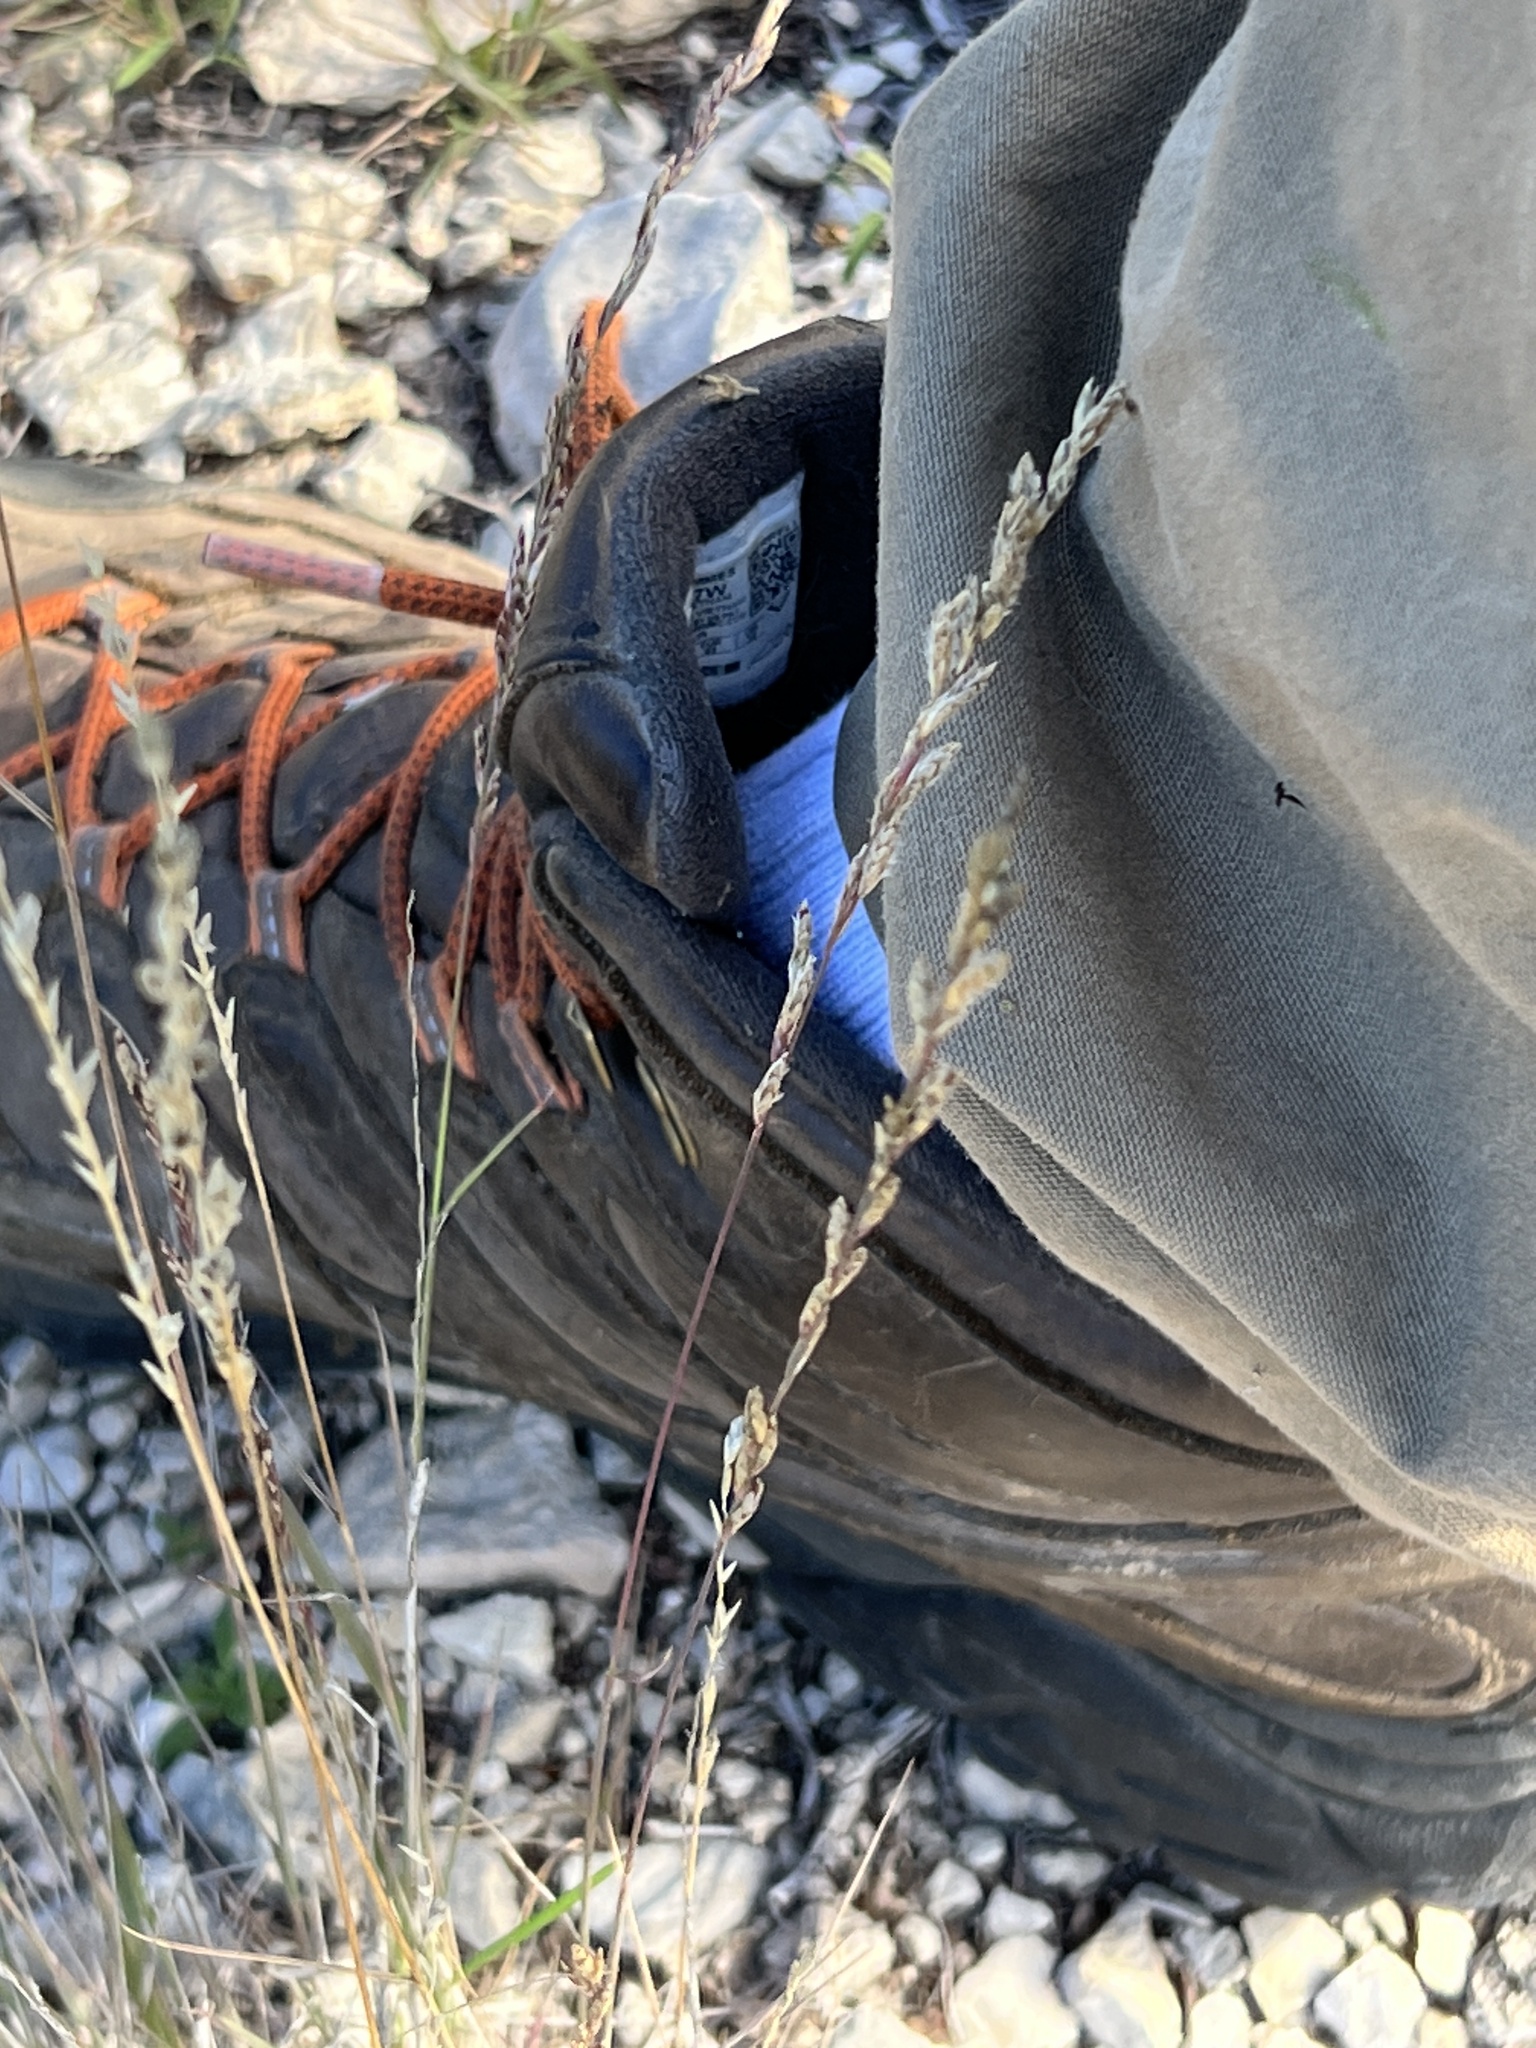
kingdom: Plantae
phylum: Tracheophyta
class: Liliopsida
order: Poales
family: Poaceae
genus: Tridentopsis
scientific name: Tridentopsis mutica
